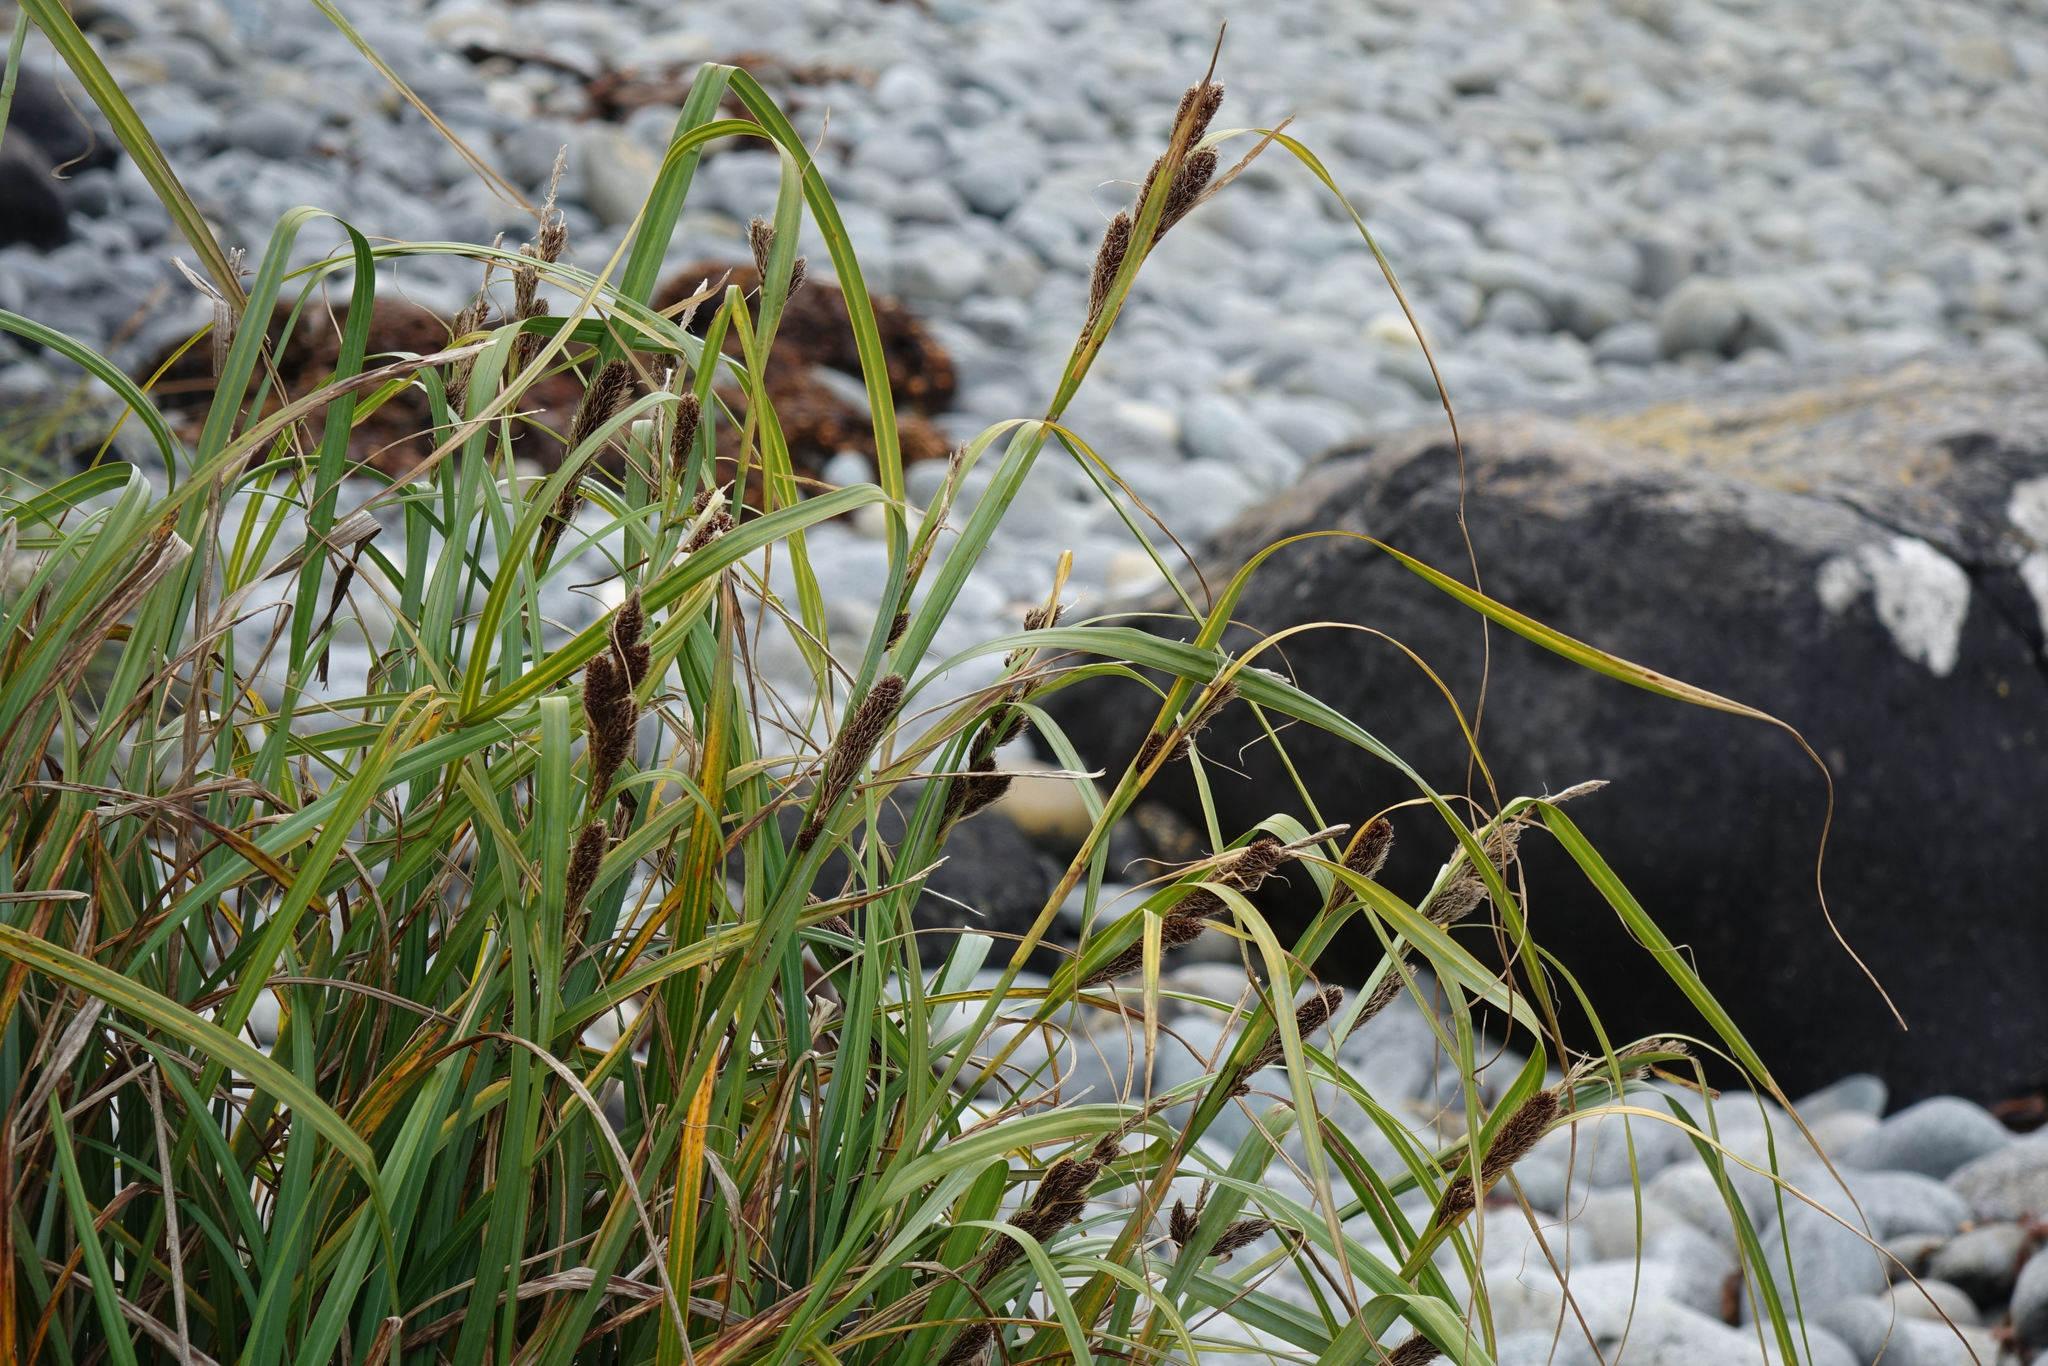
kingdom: Plantae
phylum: Tracheophyta
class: Liliopsida
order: Poales
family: Cyperaceae
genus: Carex
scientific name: Carex trifida
